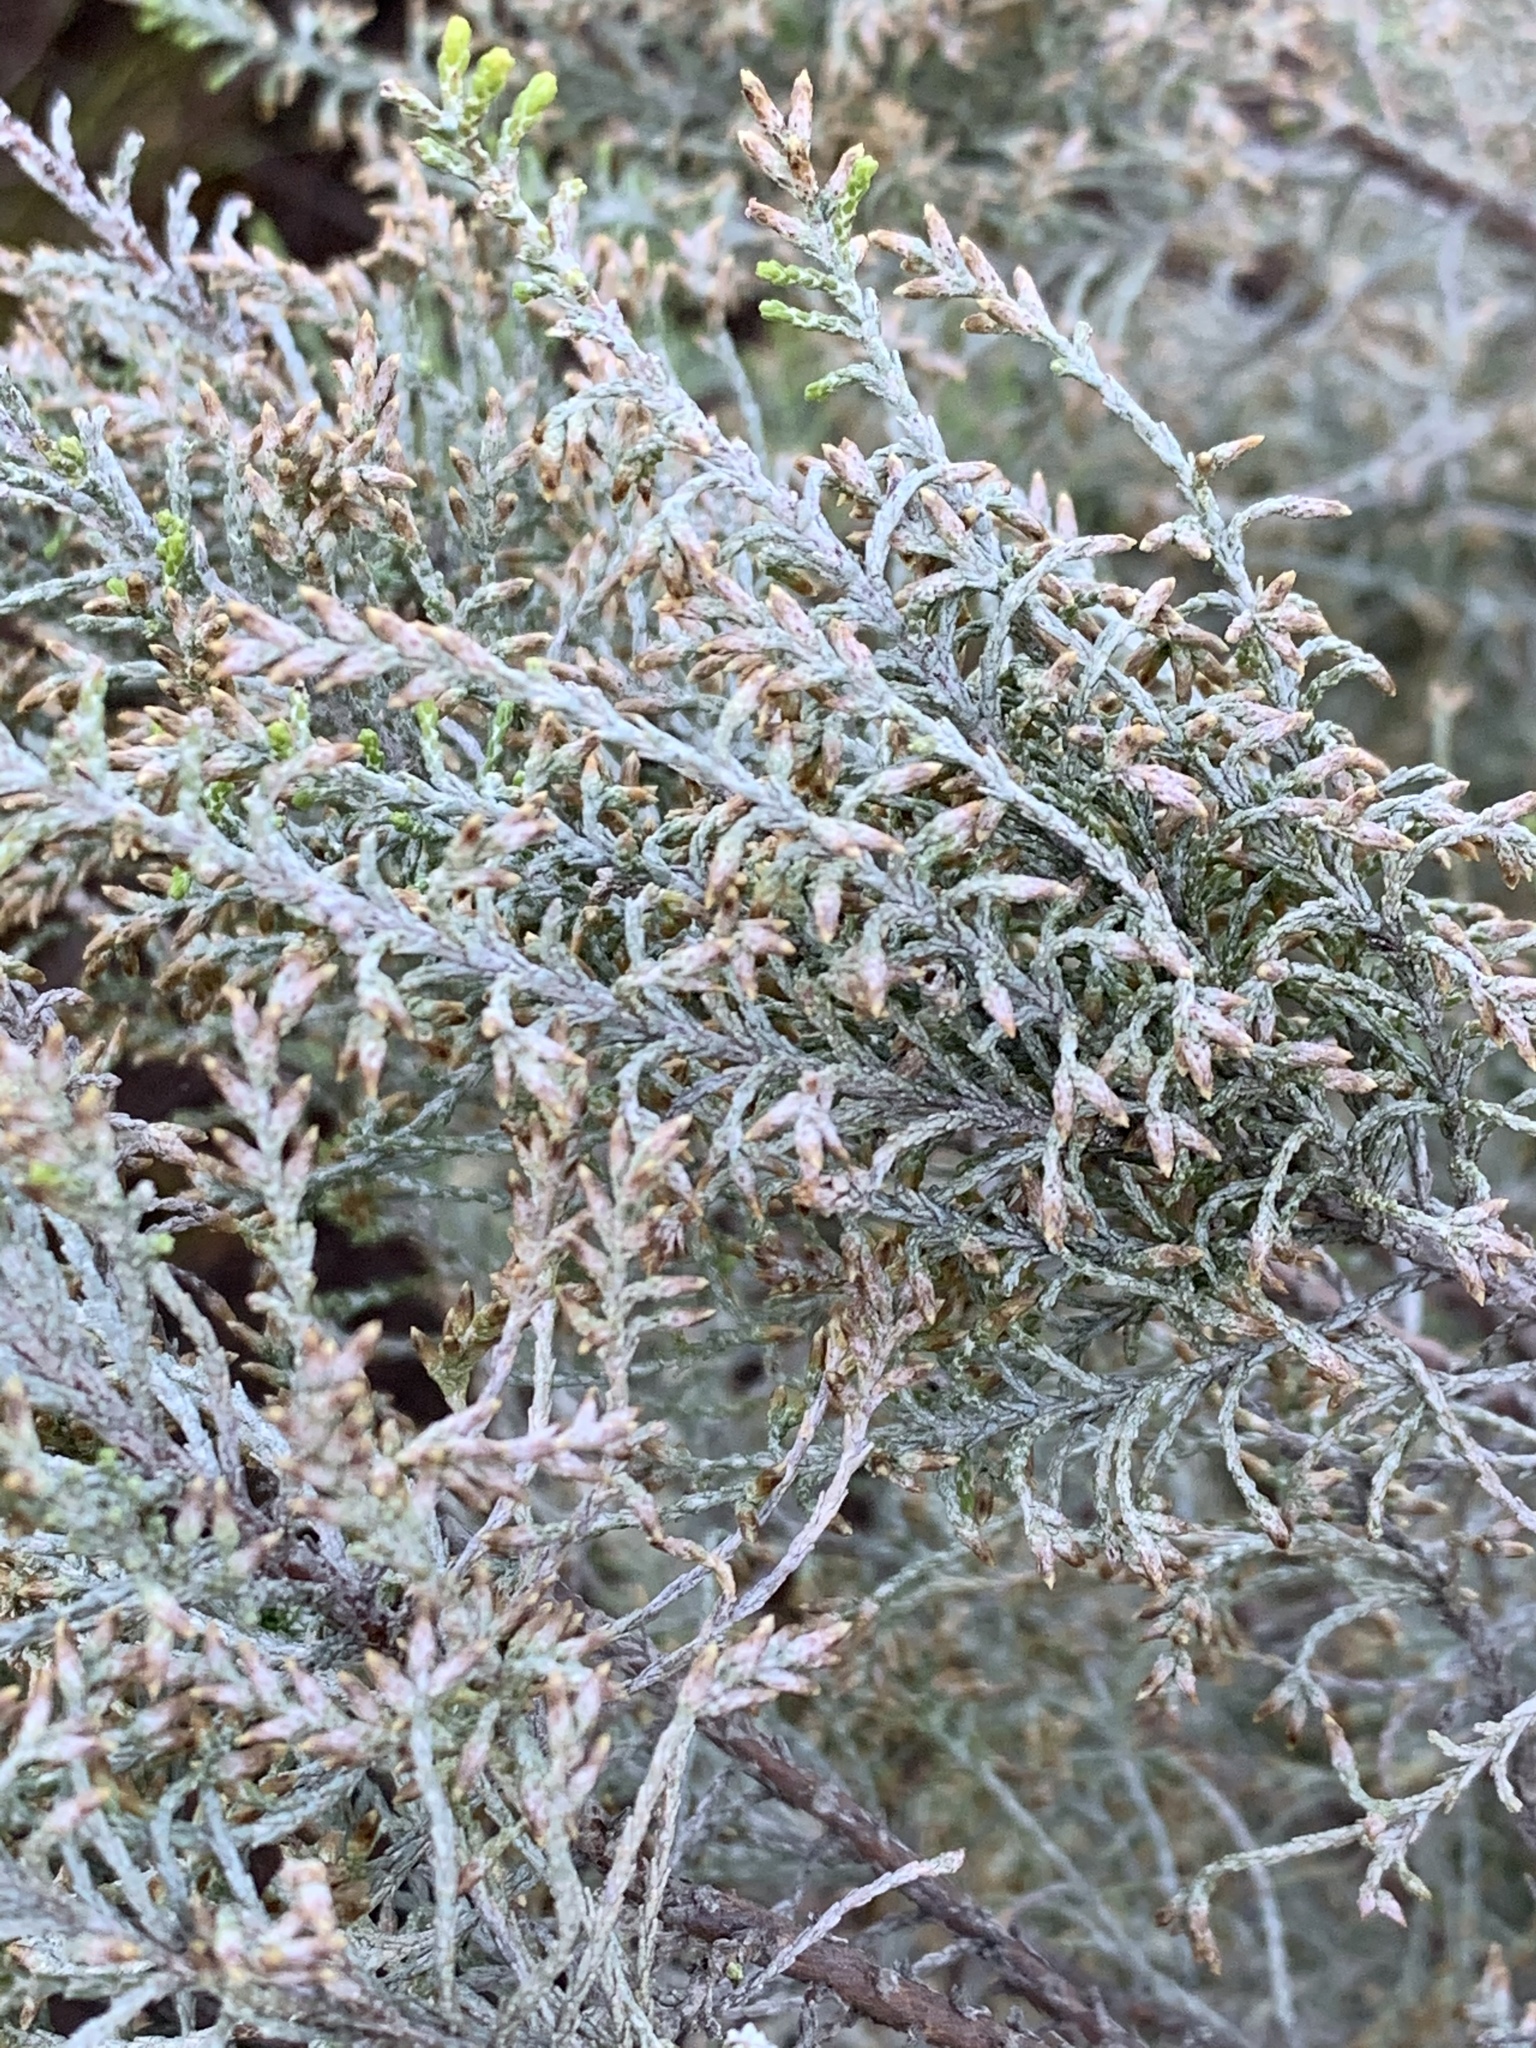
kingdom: Plantae
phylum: Tracheophyta
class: Magnoliopsida
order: Asterales
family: Asteraceae
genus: Dicerothamnus
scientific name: Dicerothamnus rhinocerotis
